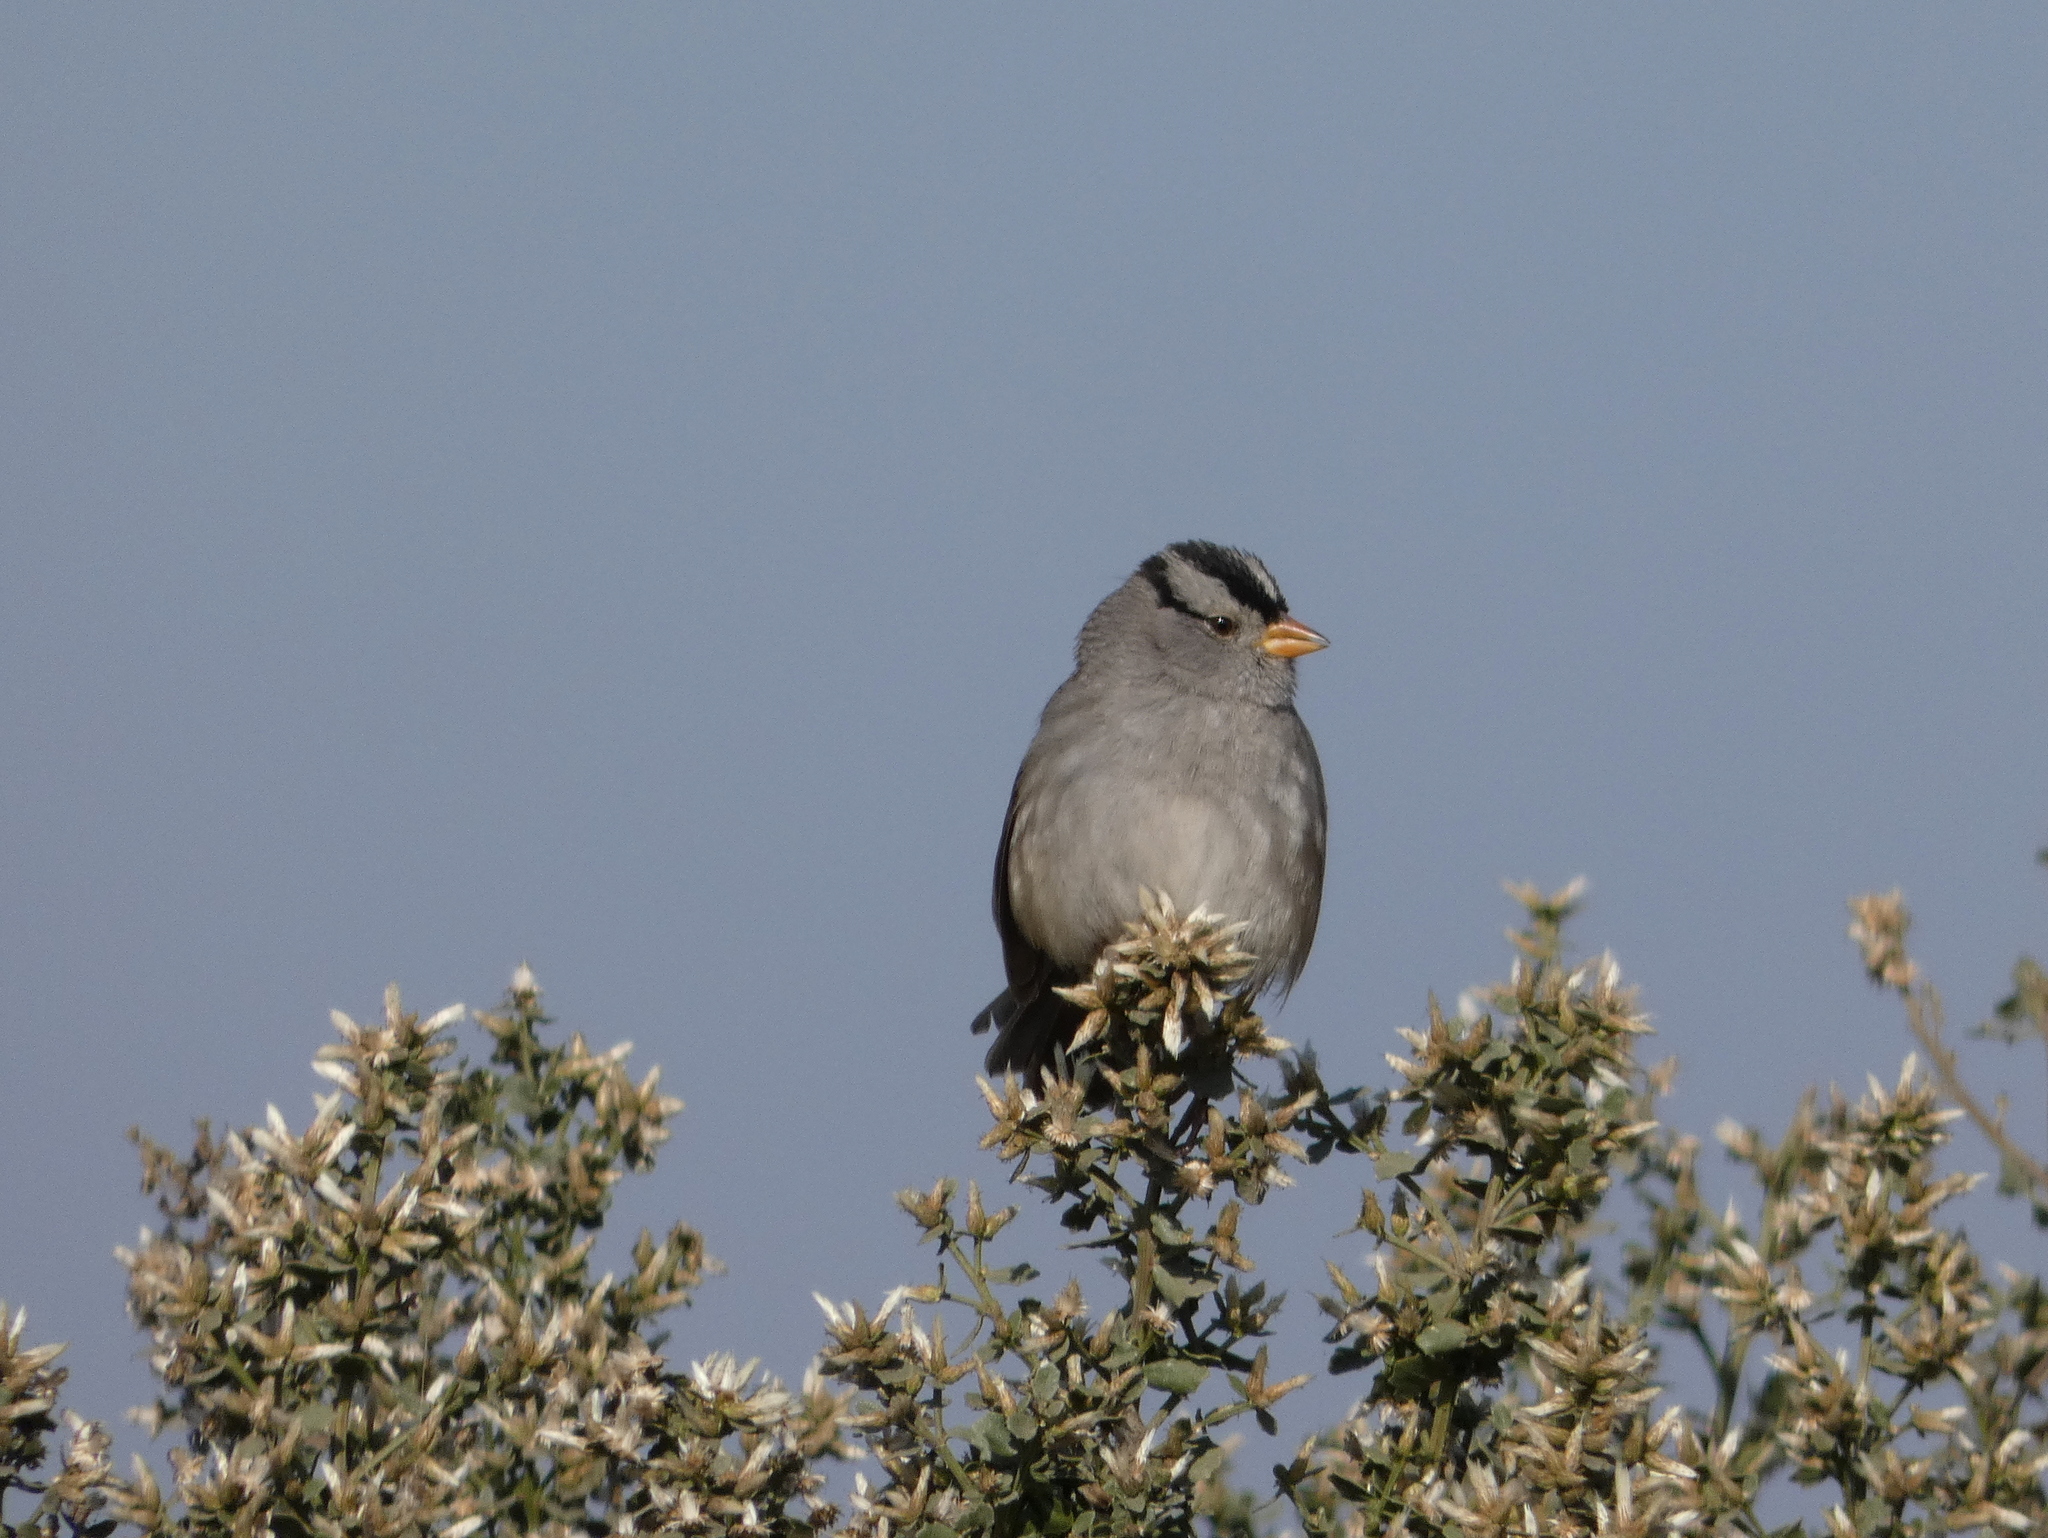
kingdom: Animalia
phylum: Chordata
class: Aves
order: Passeriformes
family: Passerellidae
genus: Zonotrichia
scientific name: Zonotrichia leucophrys
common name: White-crowned sparrow
